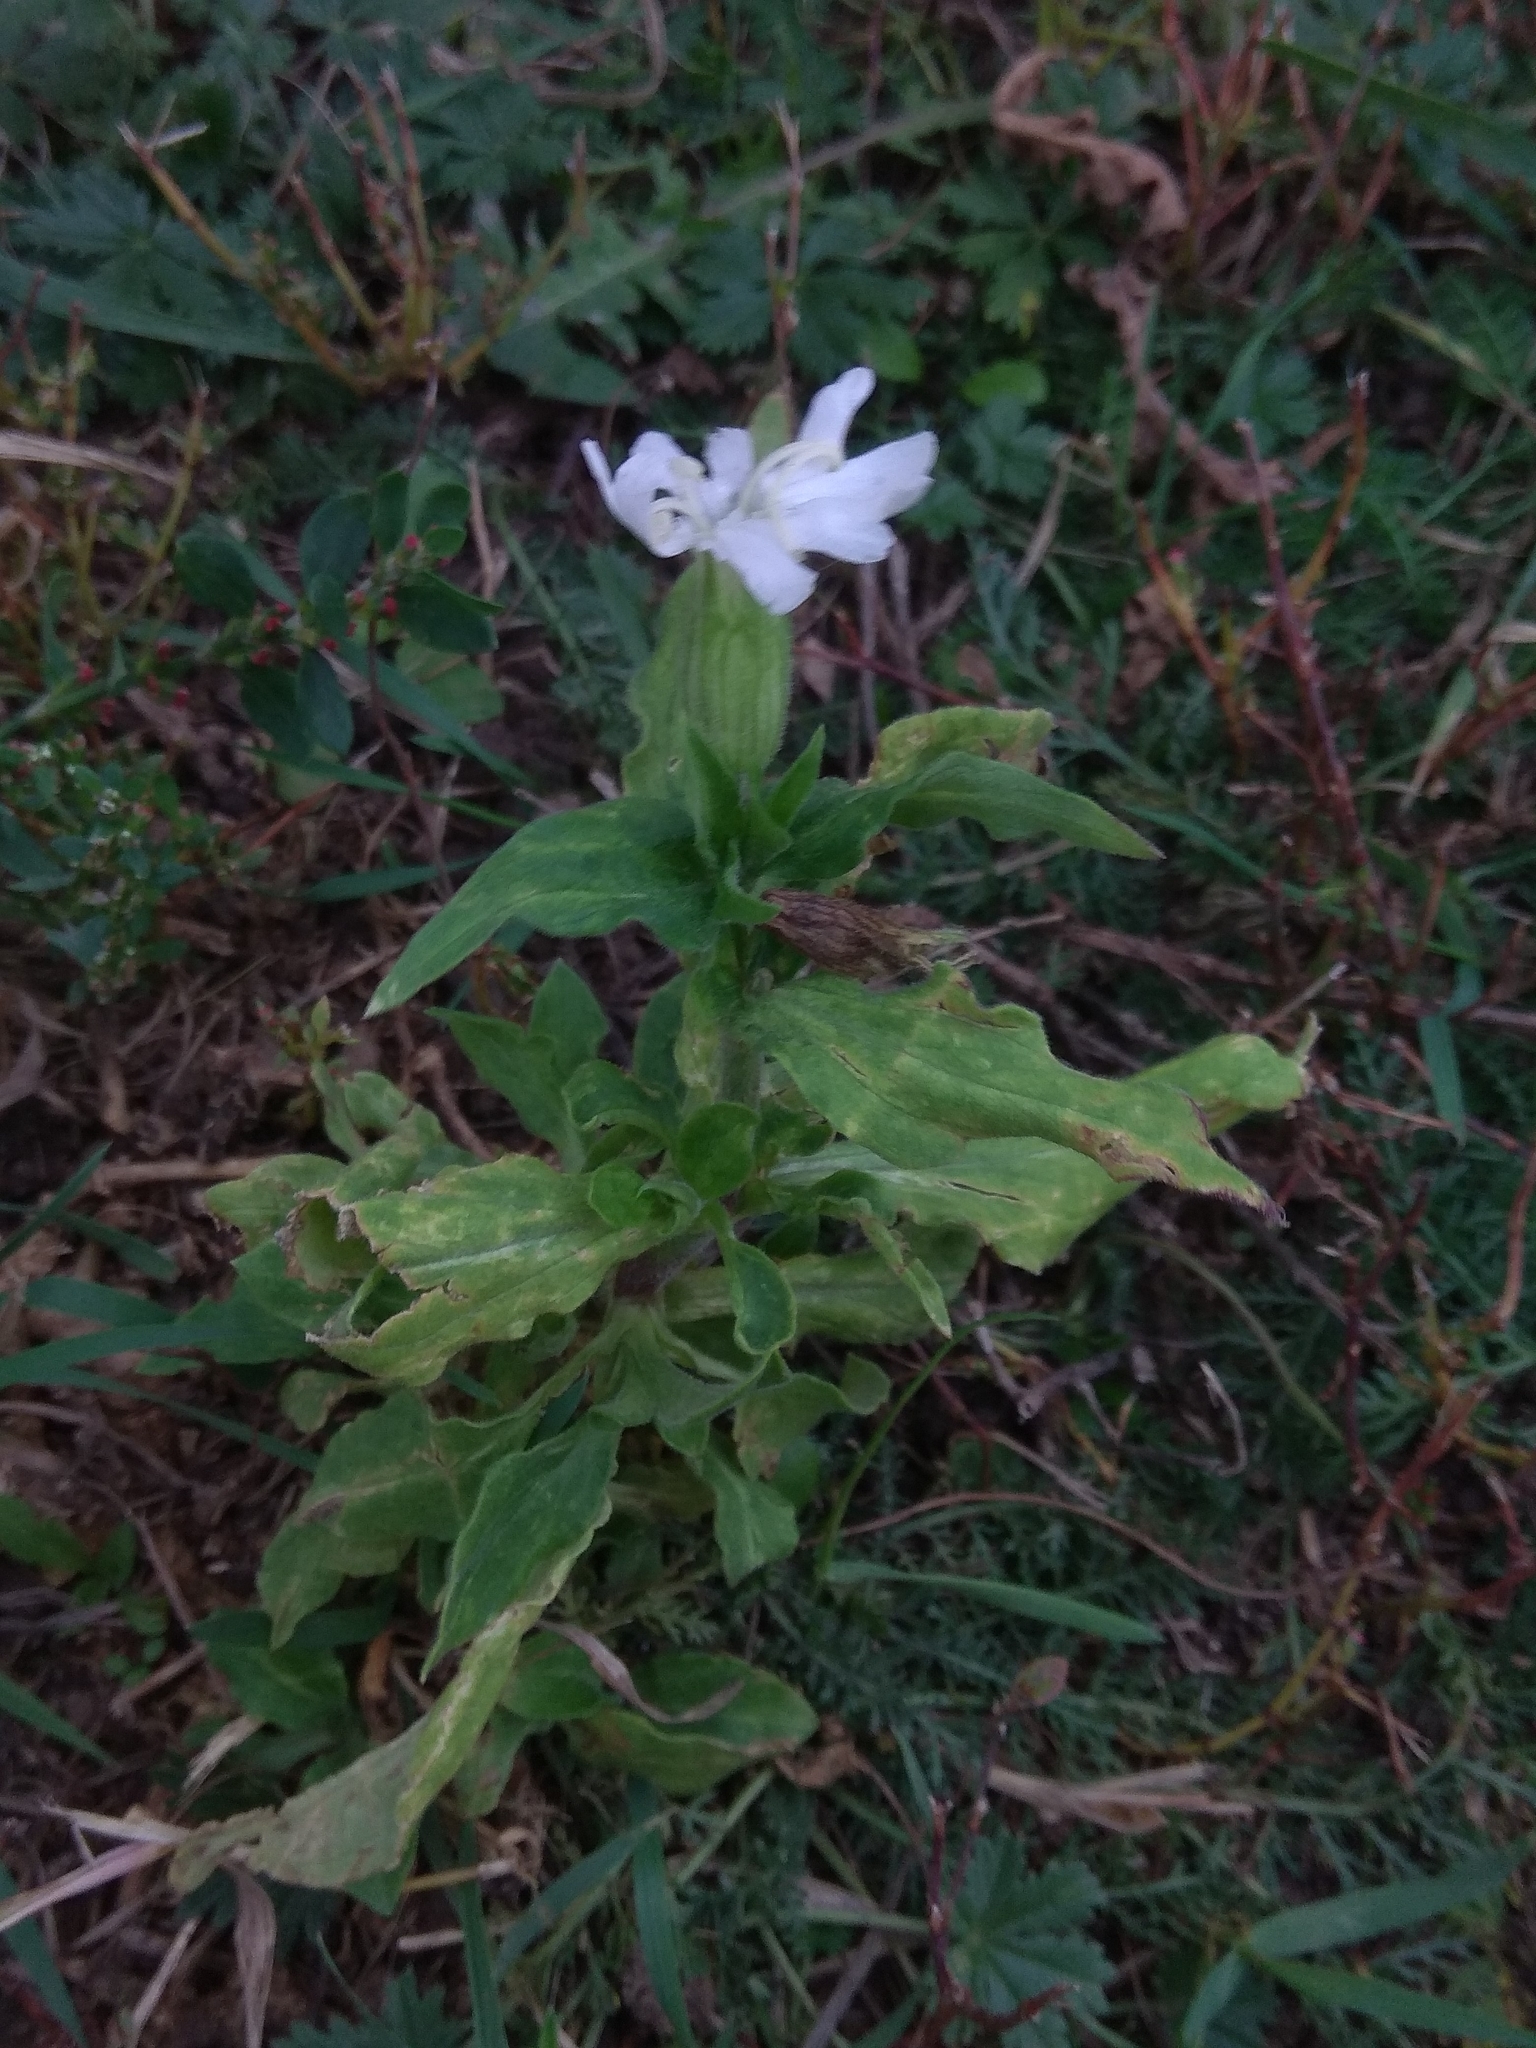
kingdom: Plantae
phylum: Tracheophyta
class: Magnoliopsida
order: Caryophyllales
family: Caryophyllaceae
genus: Silene
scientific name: Silene latifolia
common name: White campion
